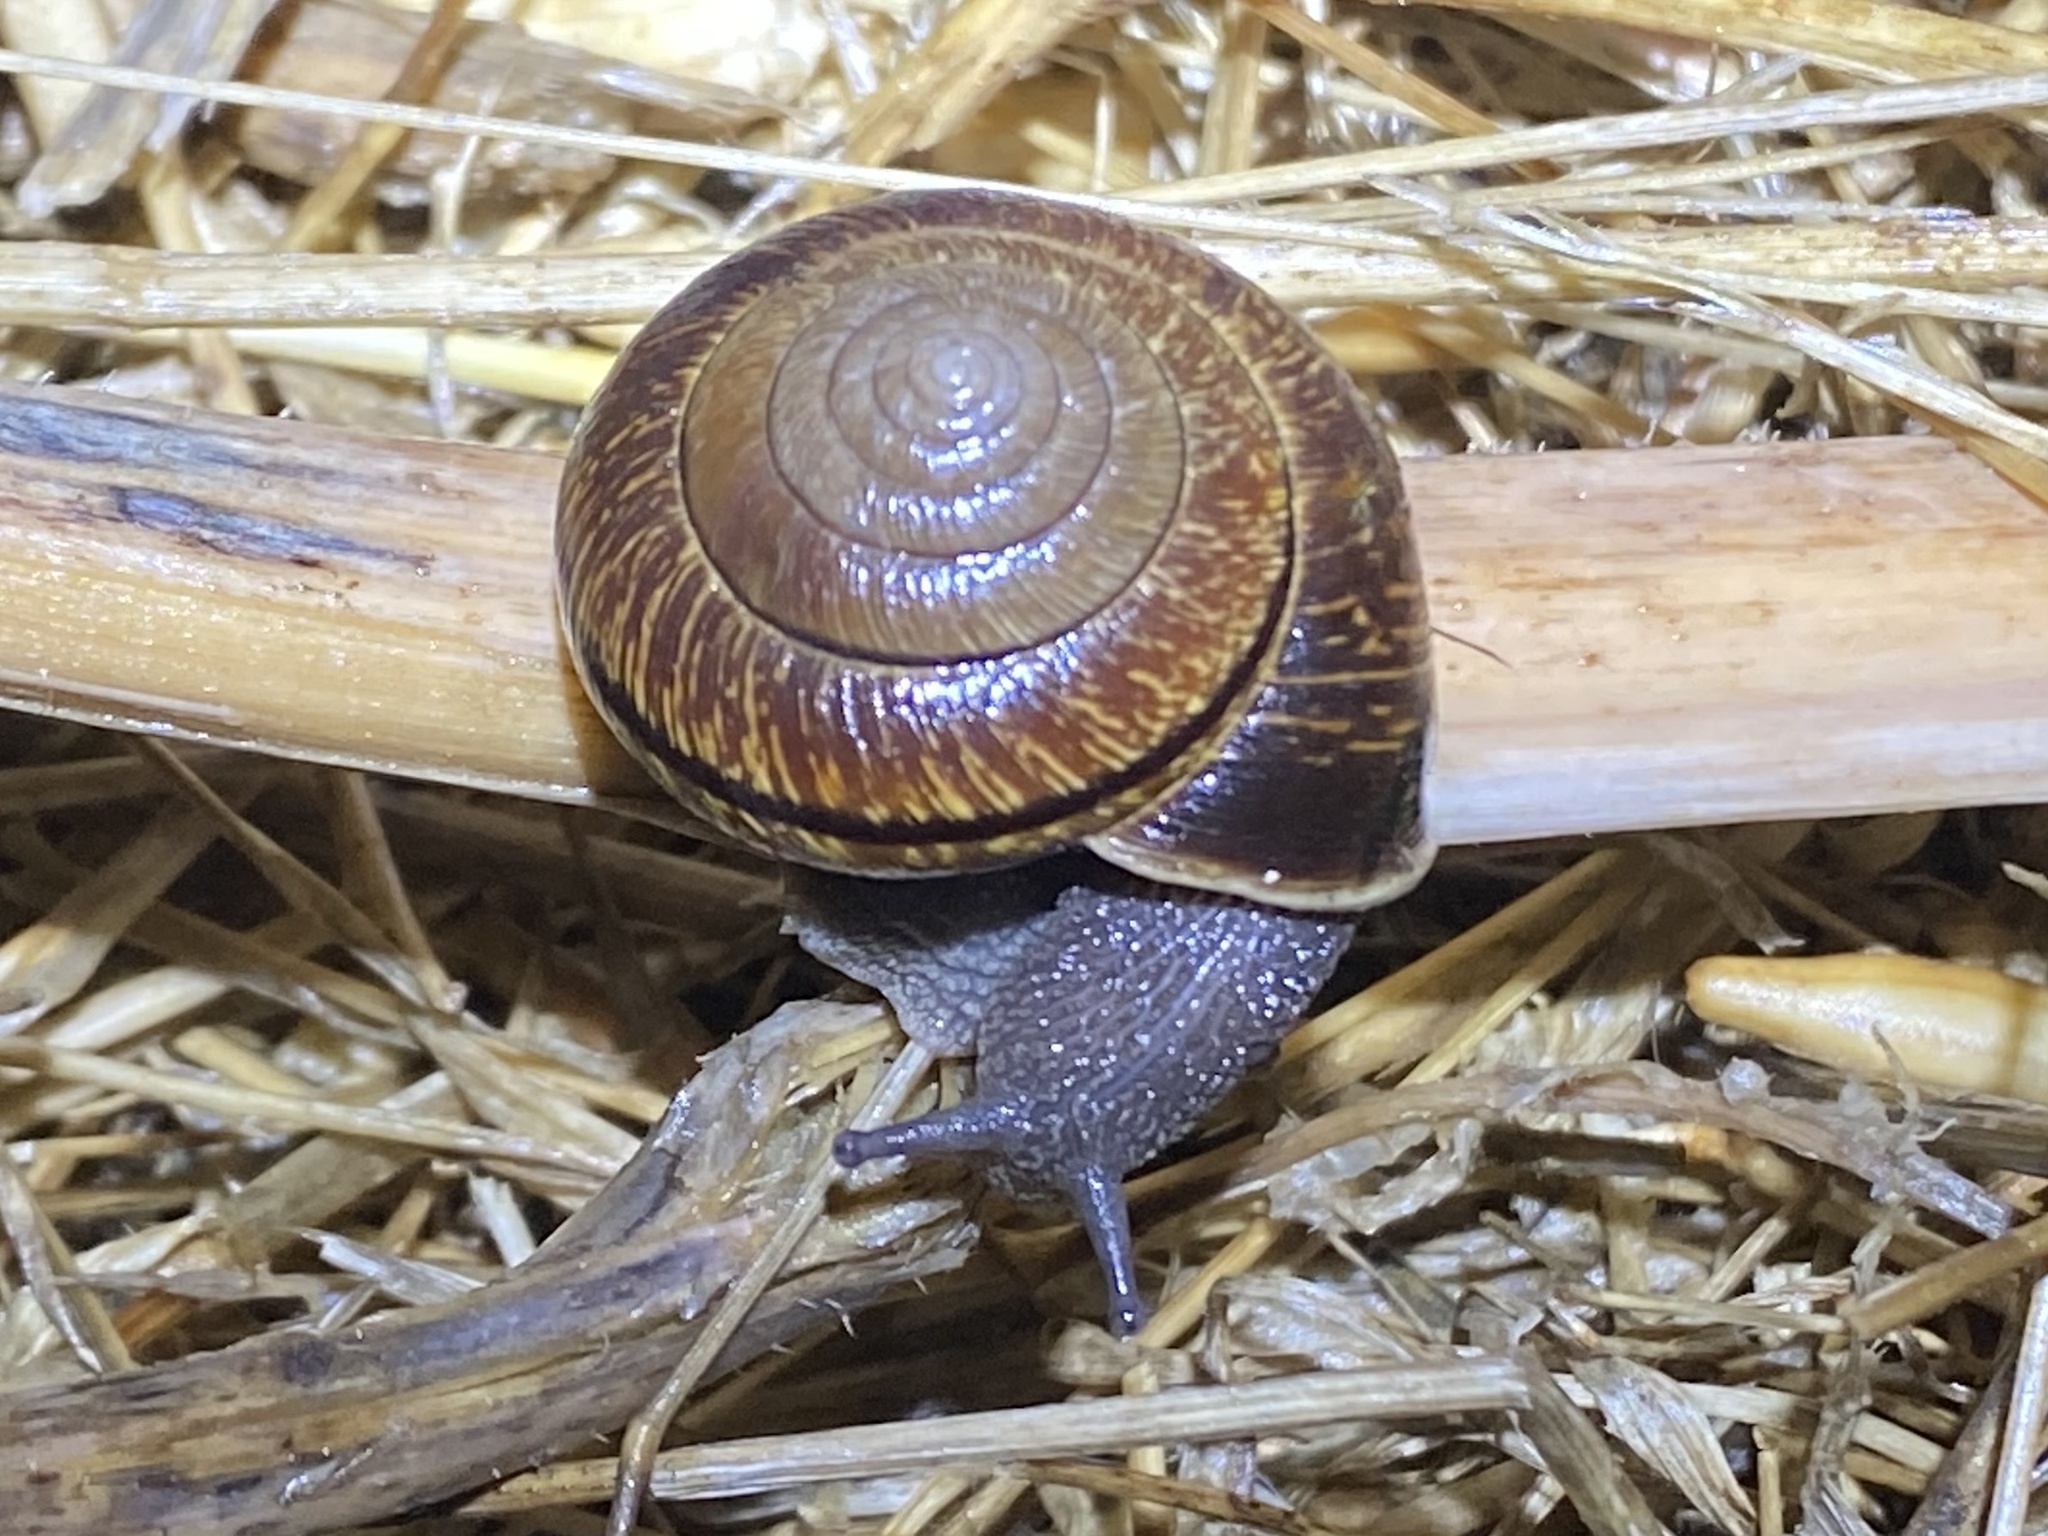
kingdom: Animalia
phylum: Mollusca
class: Gastropoda
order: Stylommatophora
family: Xanthonychidae
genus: Helminthoglypta
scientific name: Helminthoglypta arrosa
